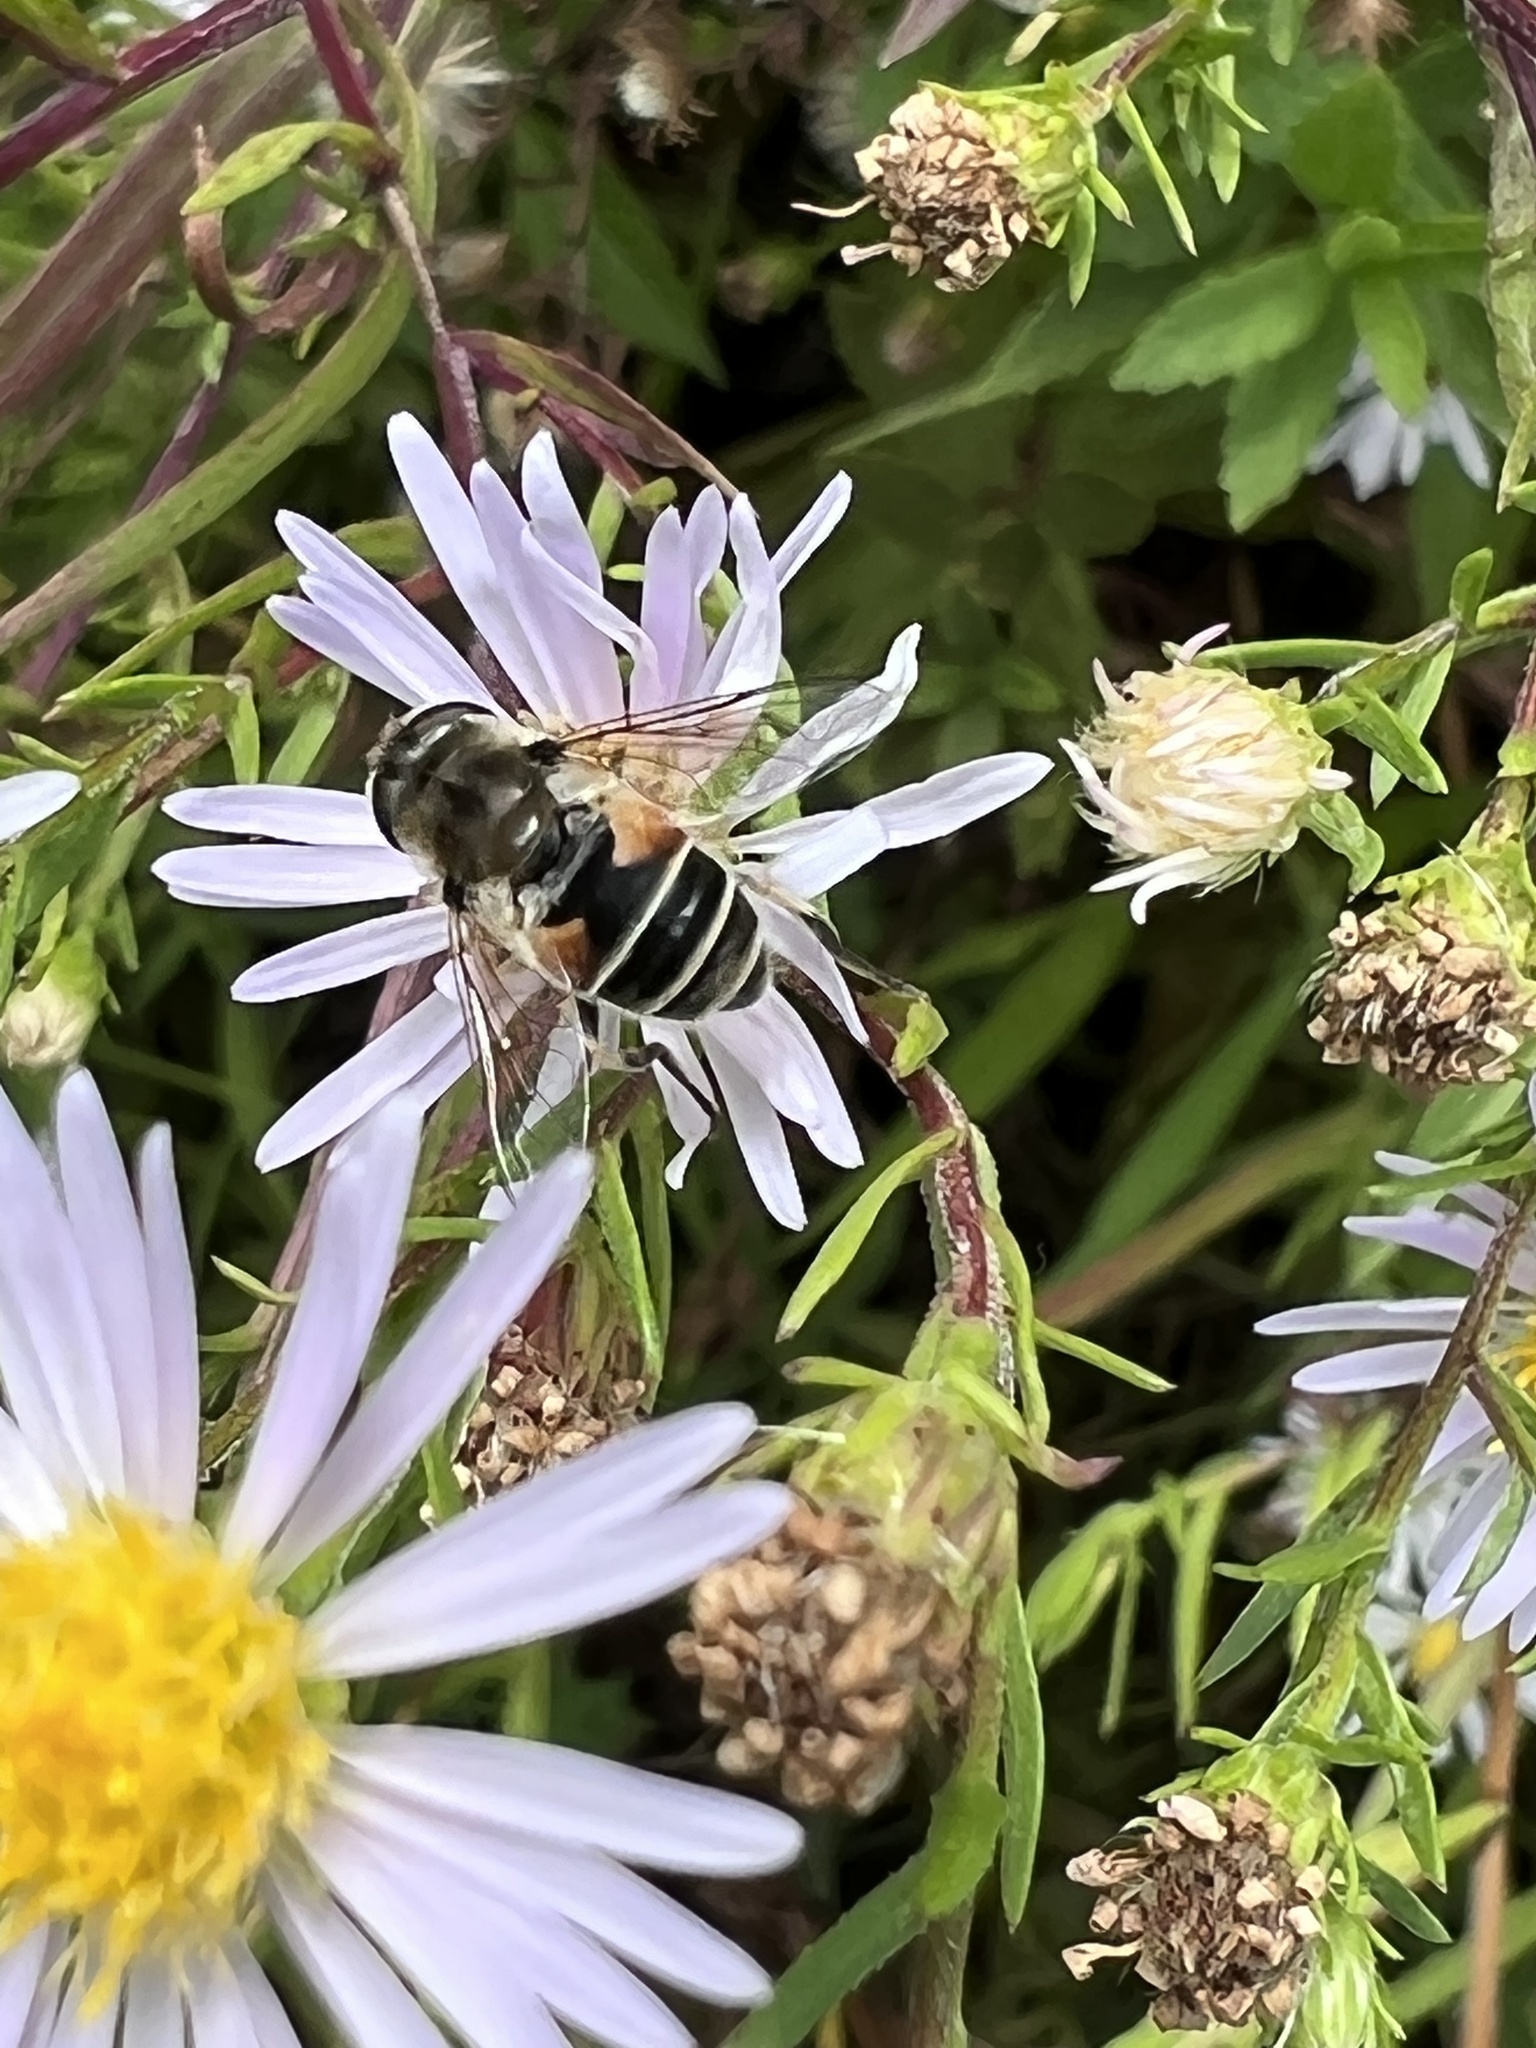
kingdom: Animalia
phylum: Arthropoda
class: Insecta
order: Diptera
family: Syrphidae
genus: Eristalis
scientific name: Eristalis arbustorum
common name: Hover fly
